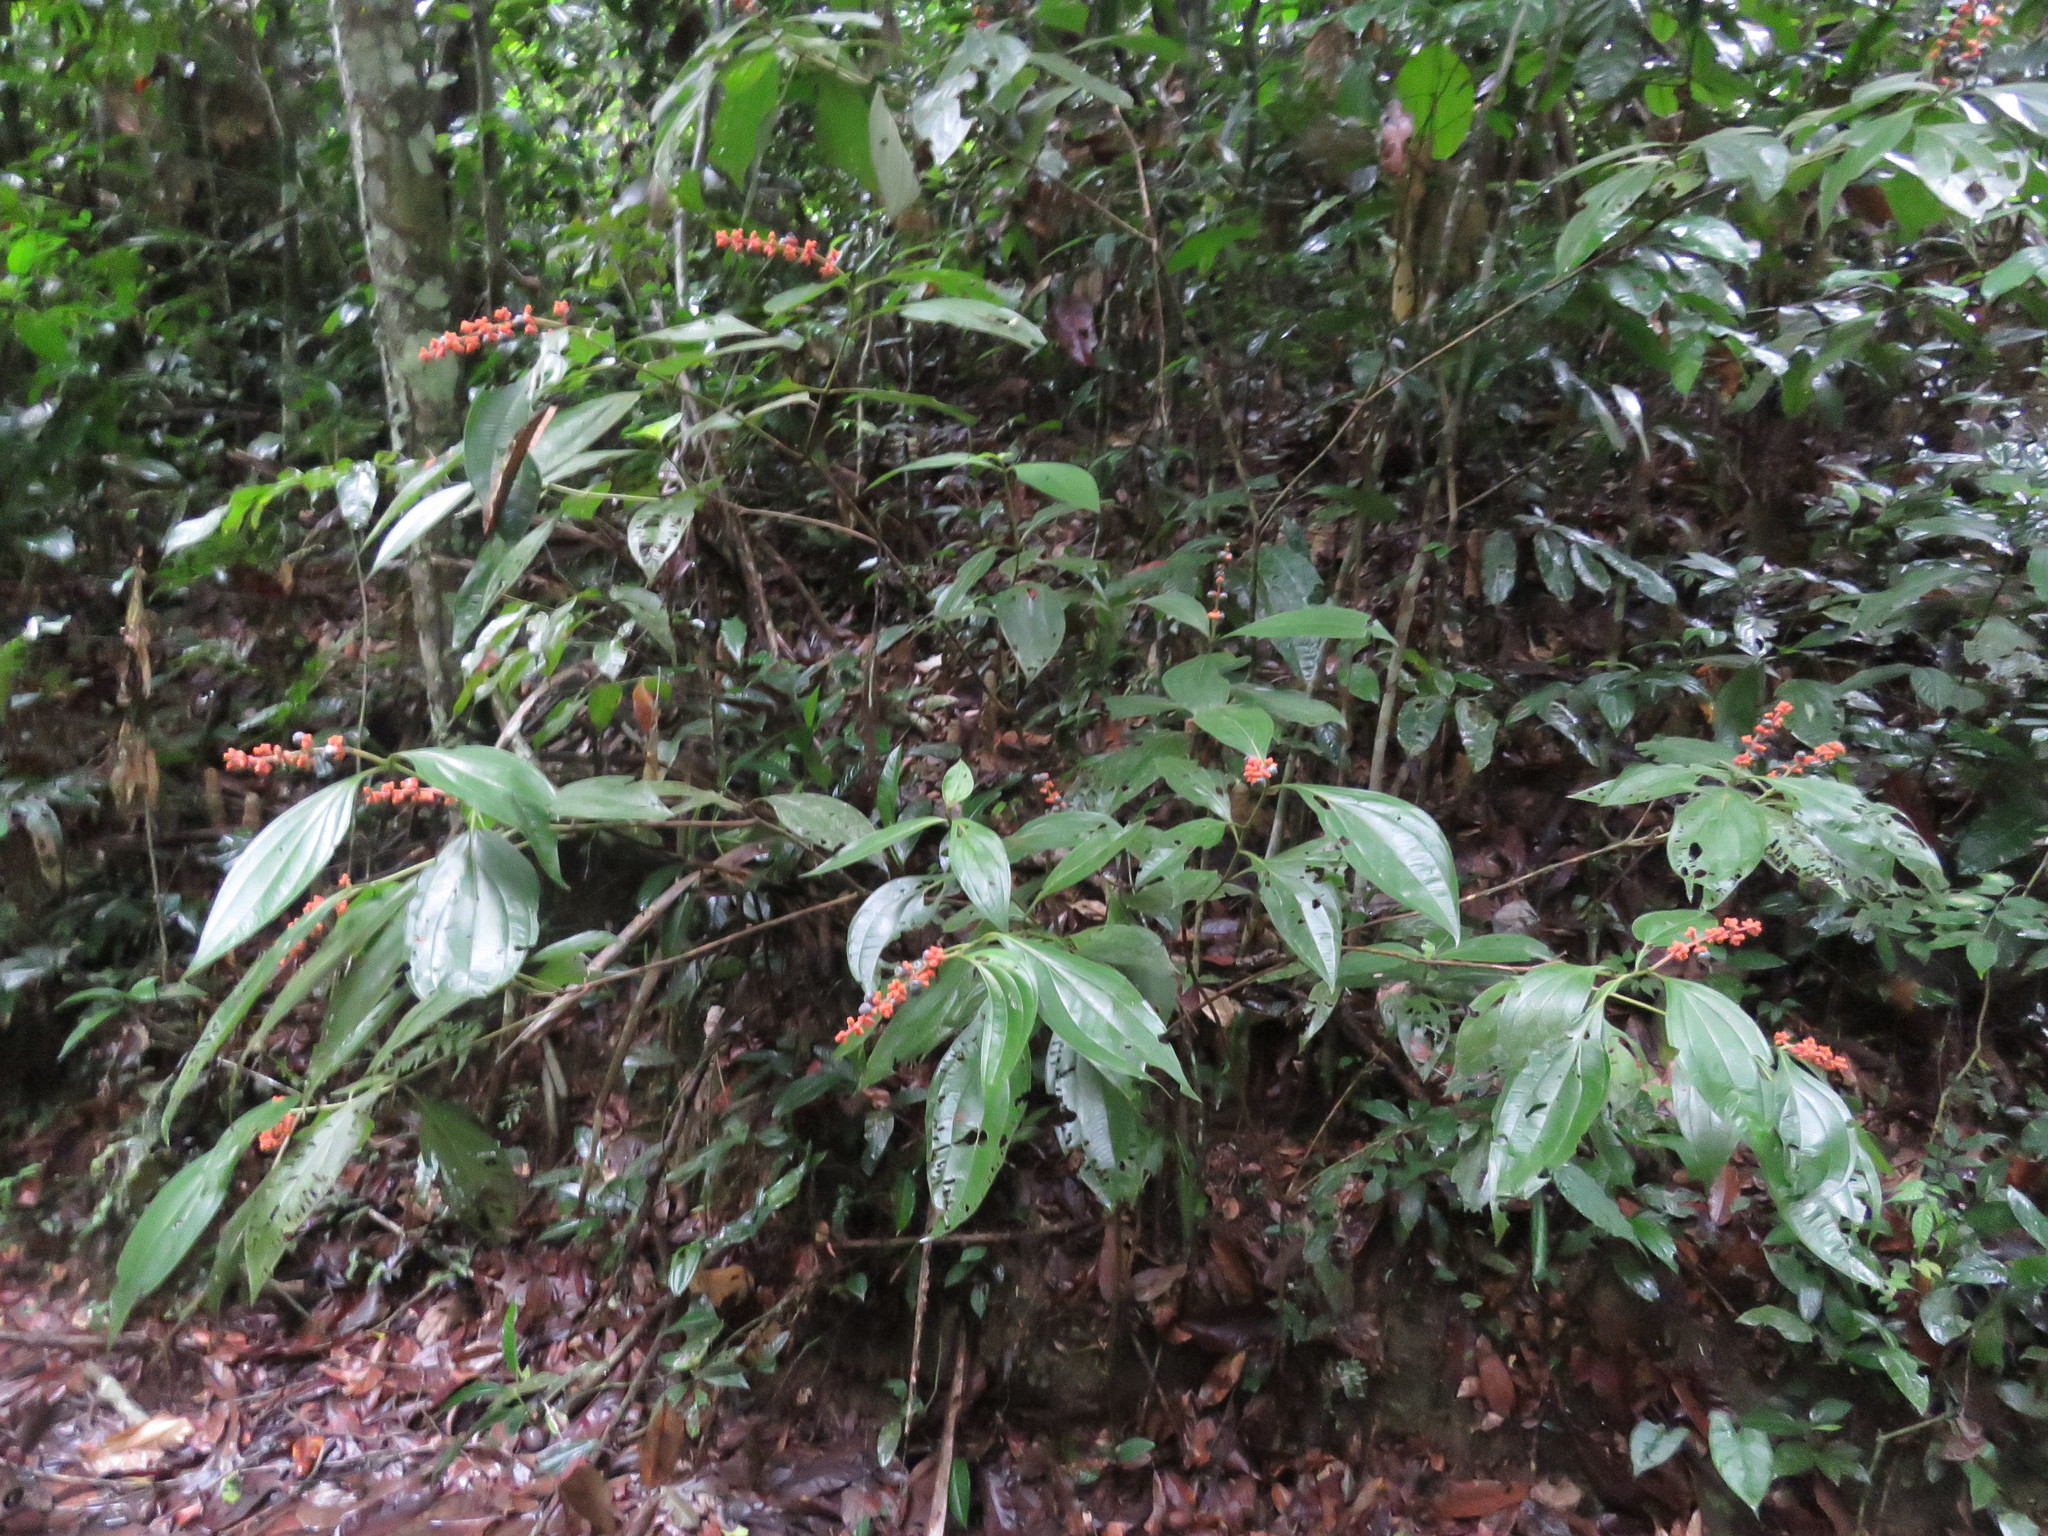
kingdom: Plantae
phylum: Tracheophyta
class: Magnoliopsida
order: Myrtales
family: Melastomataceae
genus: Miconia
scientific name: Miconia nervosa
